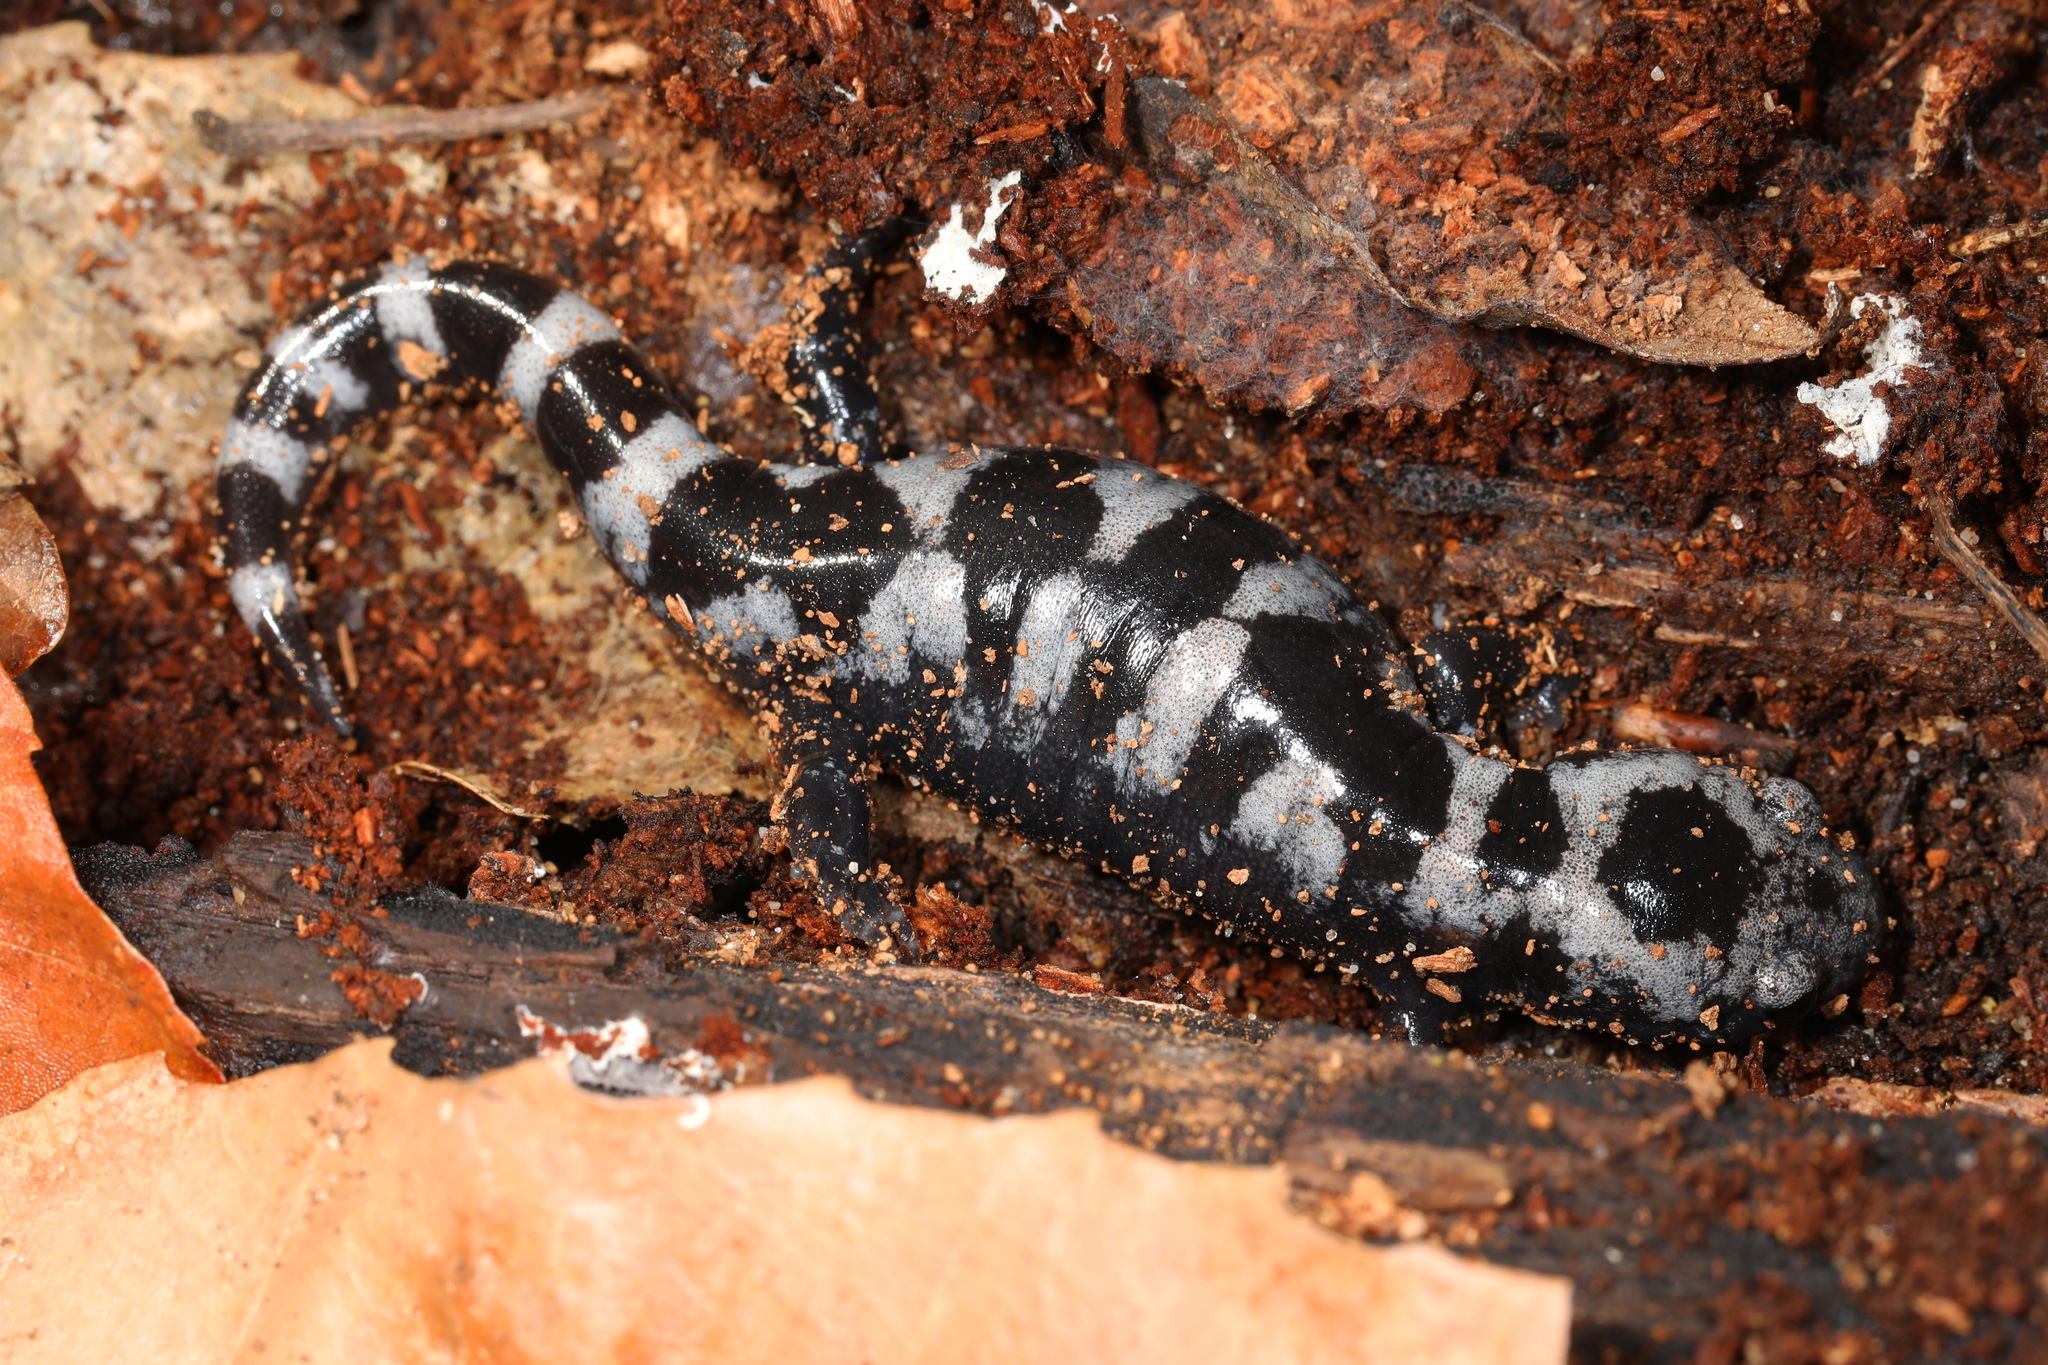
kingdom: Animalia
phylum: Chordata
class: Amphibia
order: Caudata
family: Ambystomatidae
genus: Ambystoma
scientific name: Ambystoma opacum
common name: Marbled salamander
